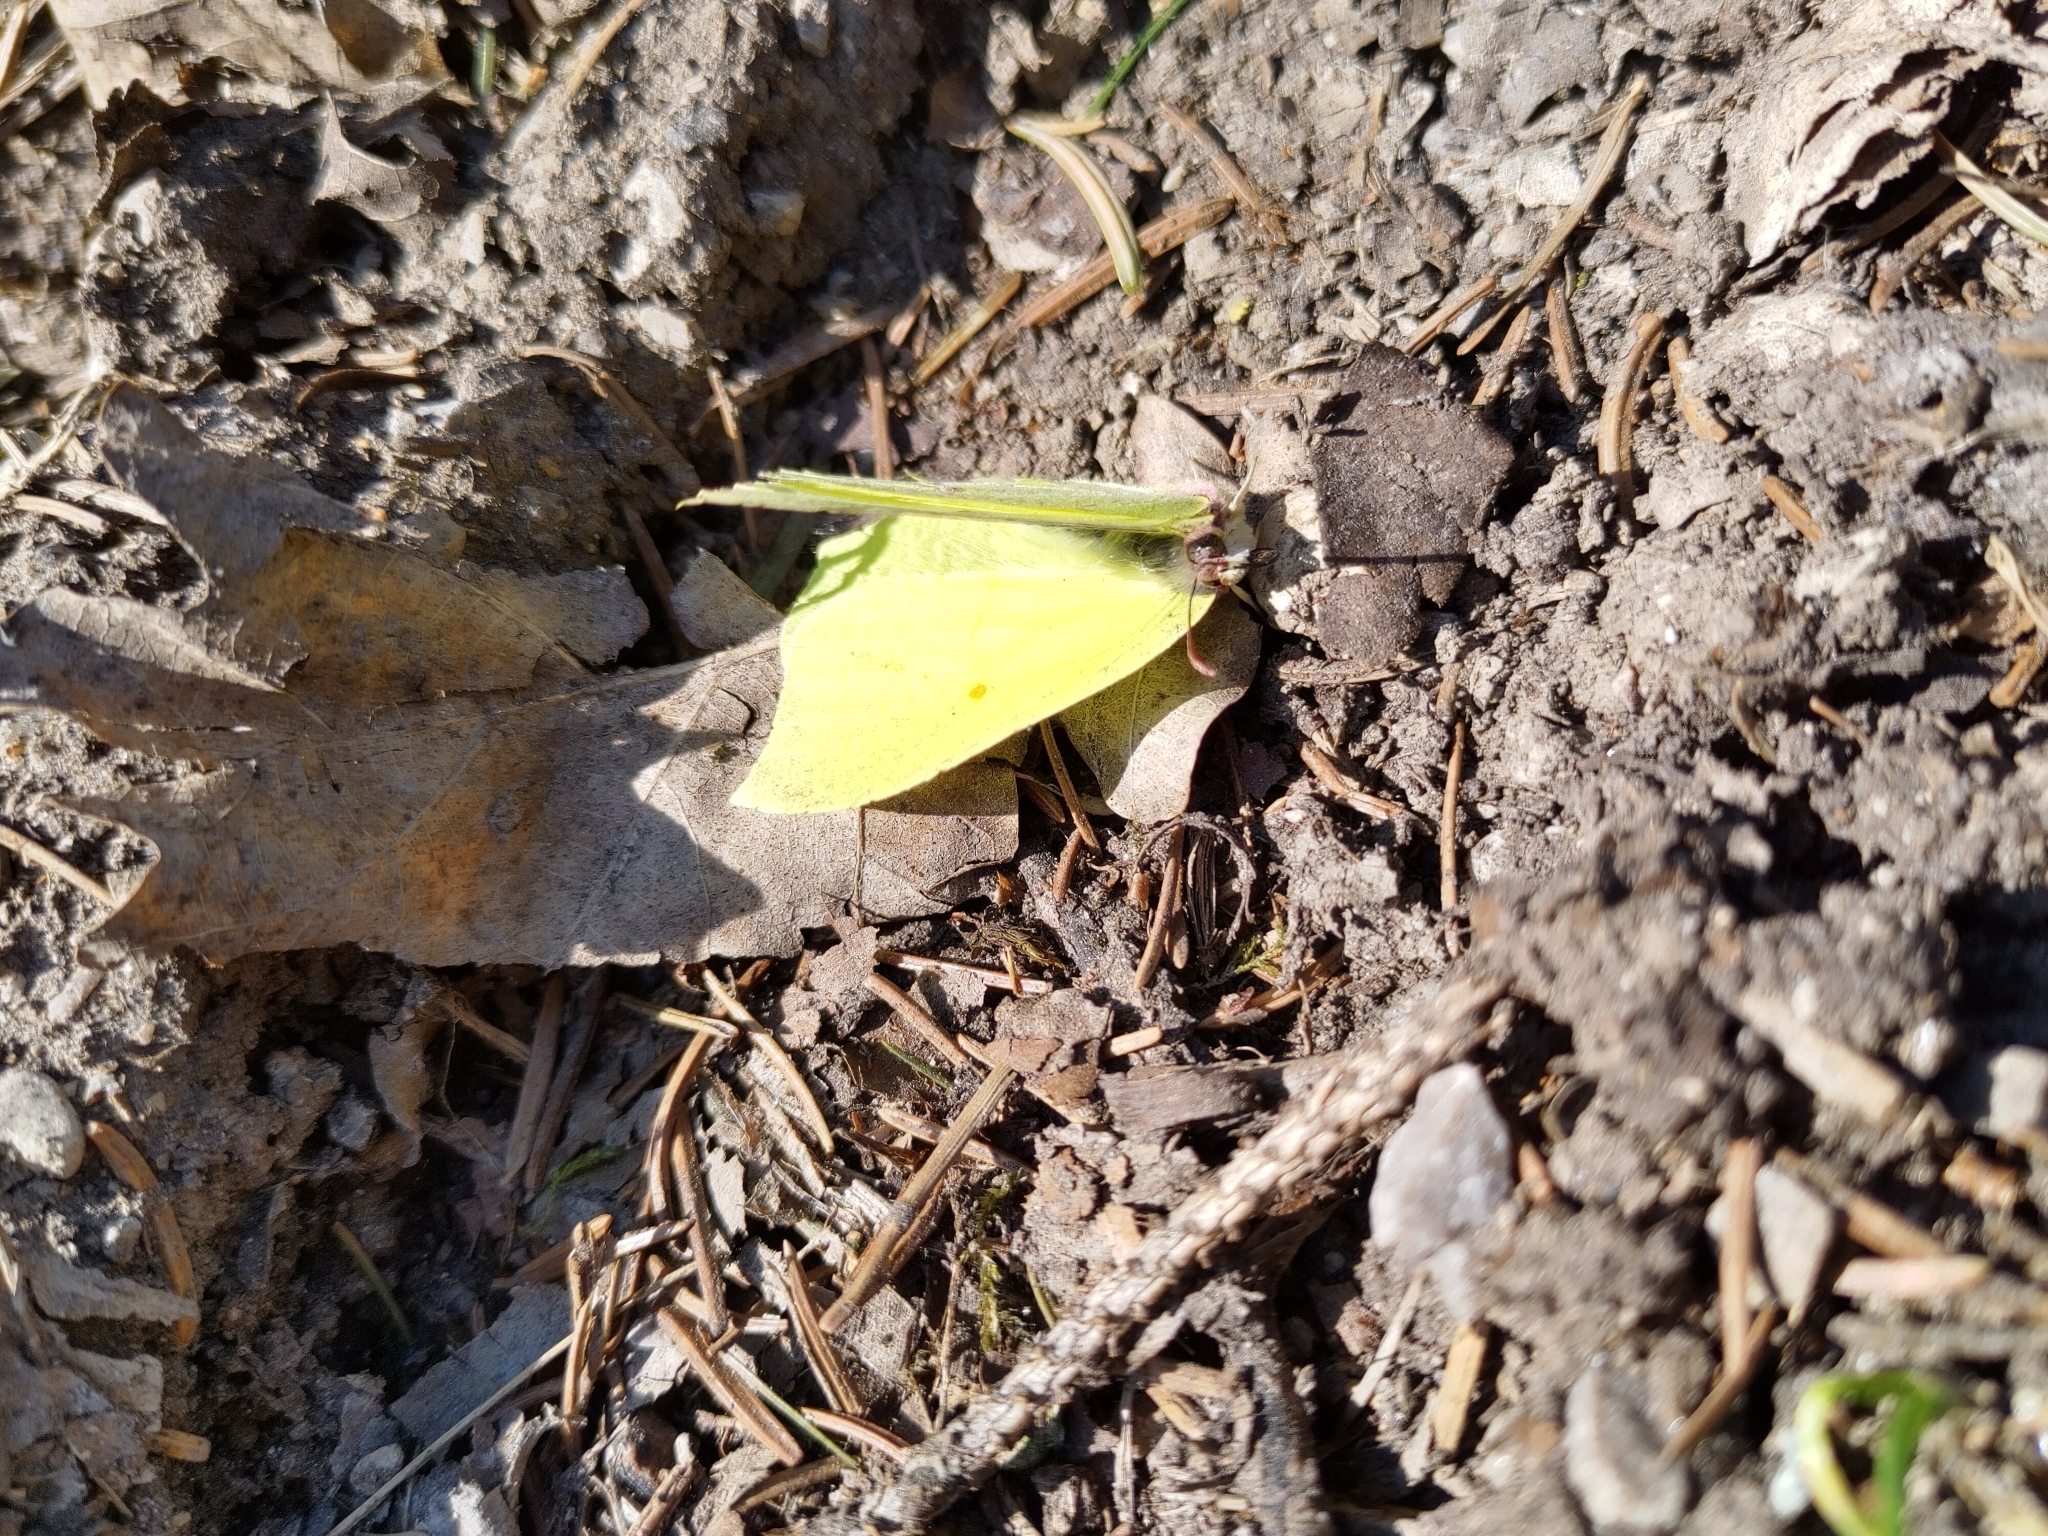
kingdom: Animalia
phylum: Arthropoda
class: Insecta
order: Lepidoptera
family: Pieridae
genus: Gonepteryx
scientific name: Gonepteryx rhamni
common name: Brimstone
